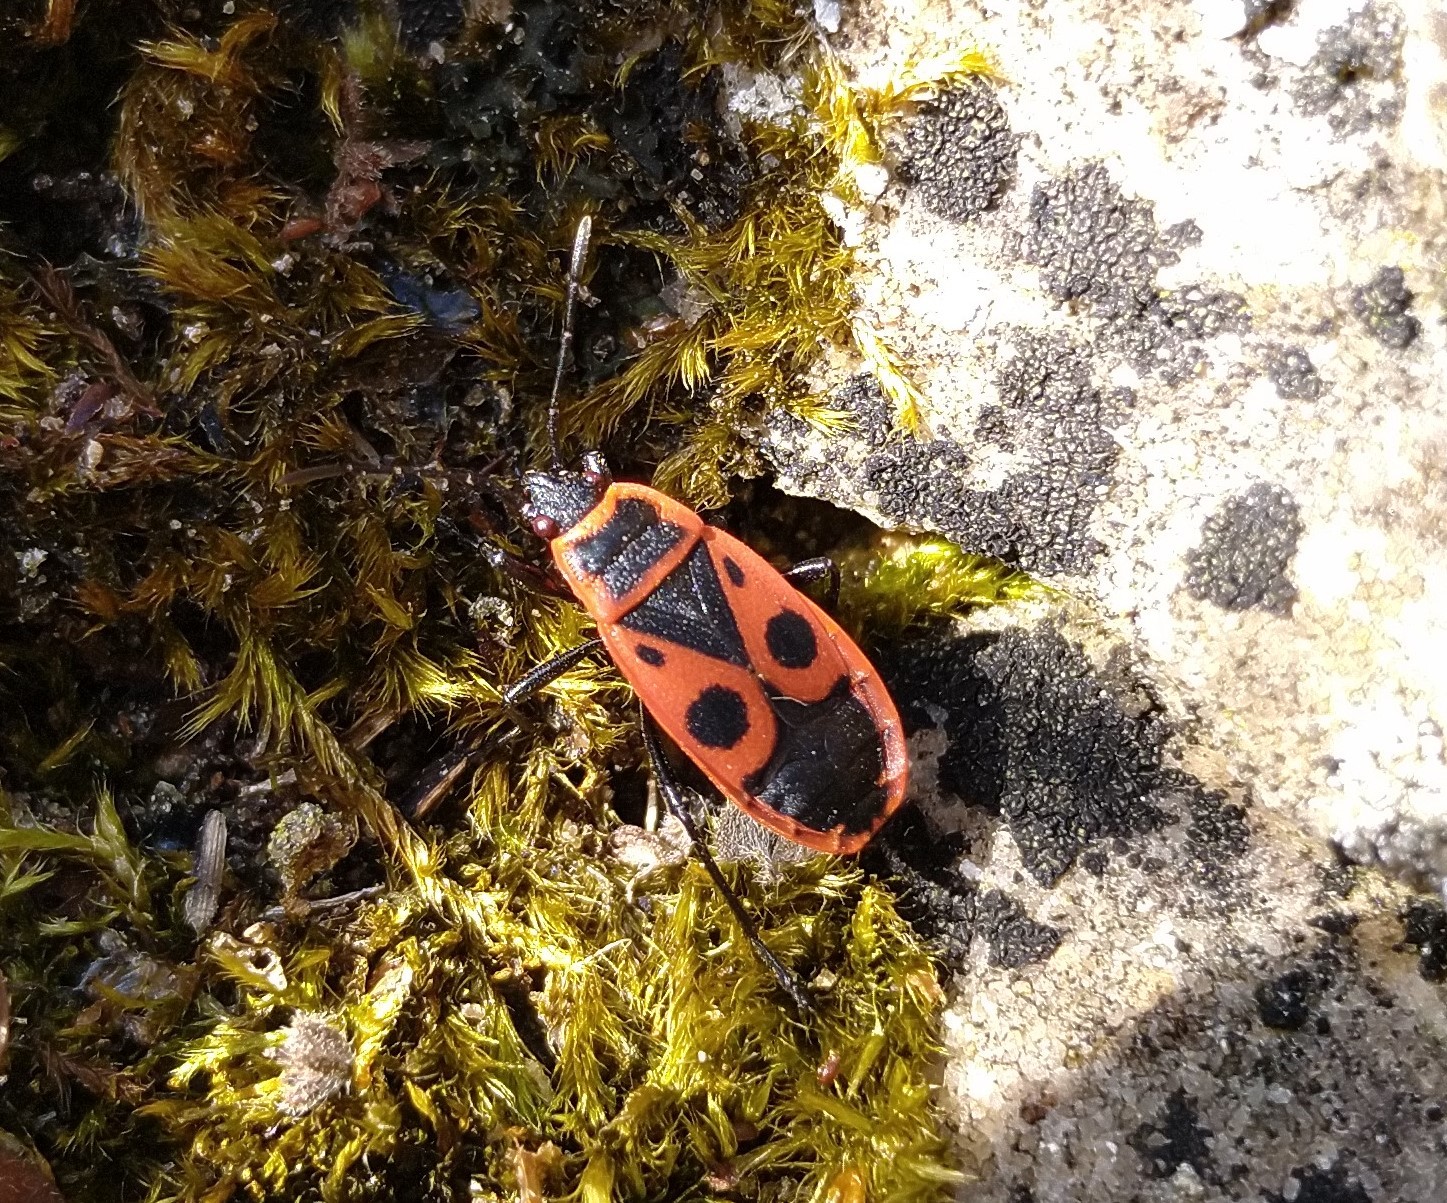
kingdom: Animalia
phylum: Arthropoda
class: Insecta
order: Hemiptera
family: Pyrrhocoridae
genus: Pyrrhocoris
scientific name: Pyrrhocoris apterus
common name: Firebug
